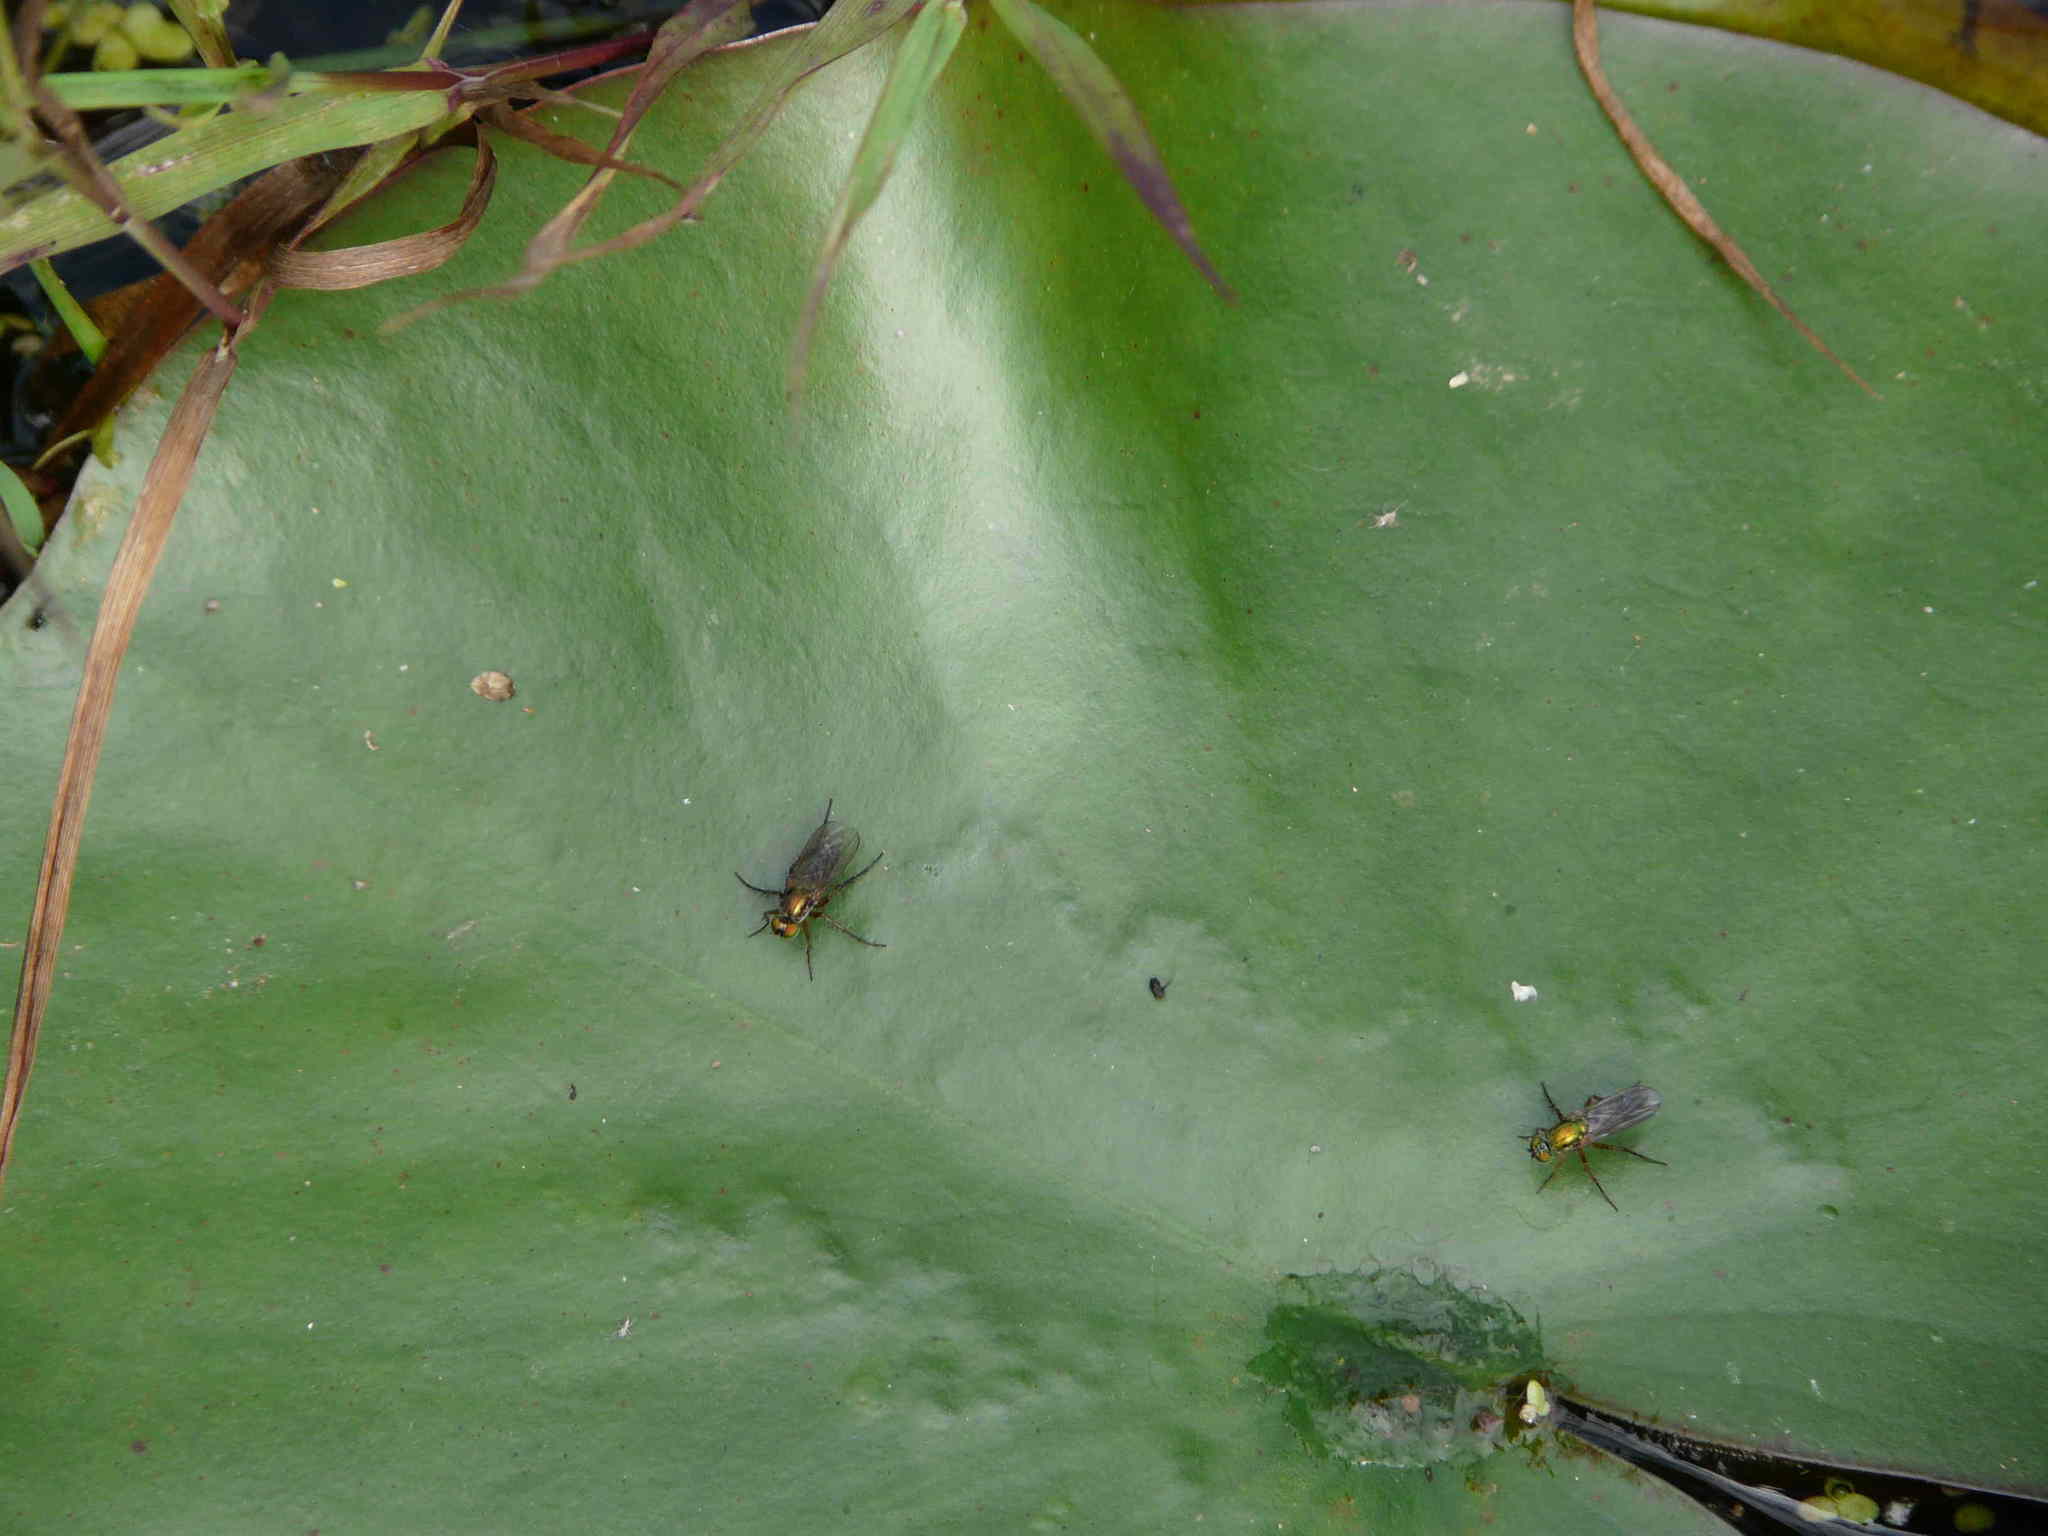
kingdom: Animalia
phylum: Arthropoda
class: Insecta
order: Diptera
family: Dolichopodidae
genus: Poecilobothrus
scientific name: Poecilobothrus nobilitatus
